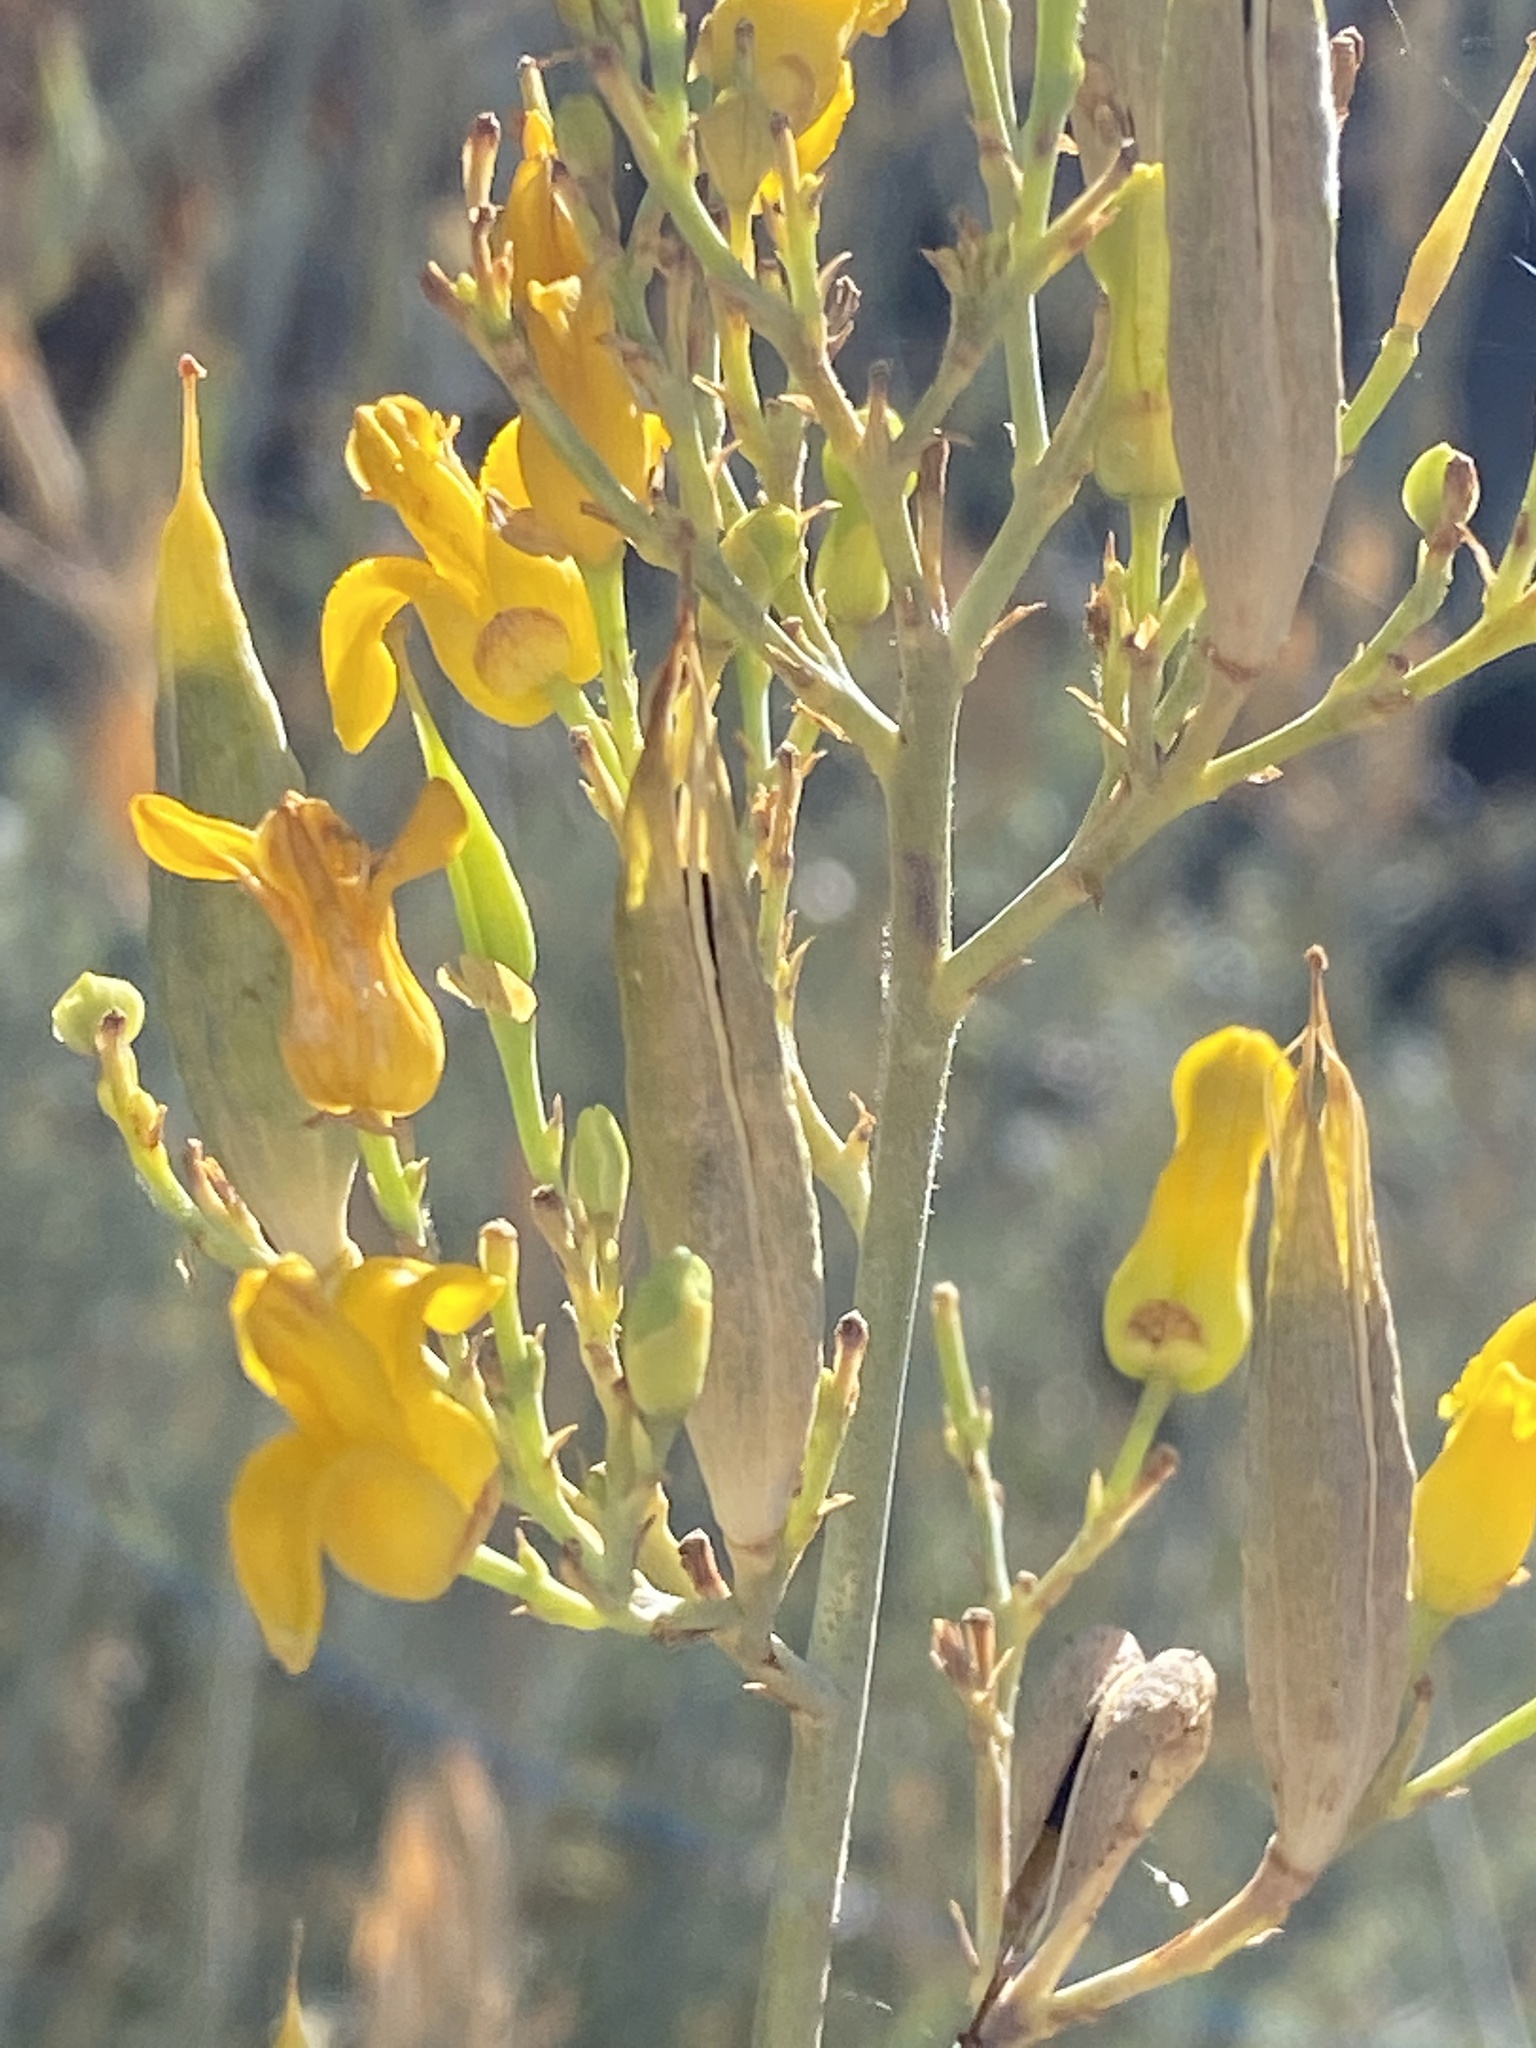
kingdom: Plantae
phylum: Tracheophyta
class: Magnoliopsida
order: Ranunculales
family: Papaveraceae
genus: Ehrendorferia
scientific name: Ehrendorferia chrysantha
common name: Golden eardrops
